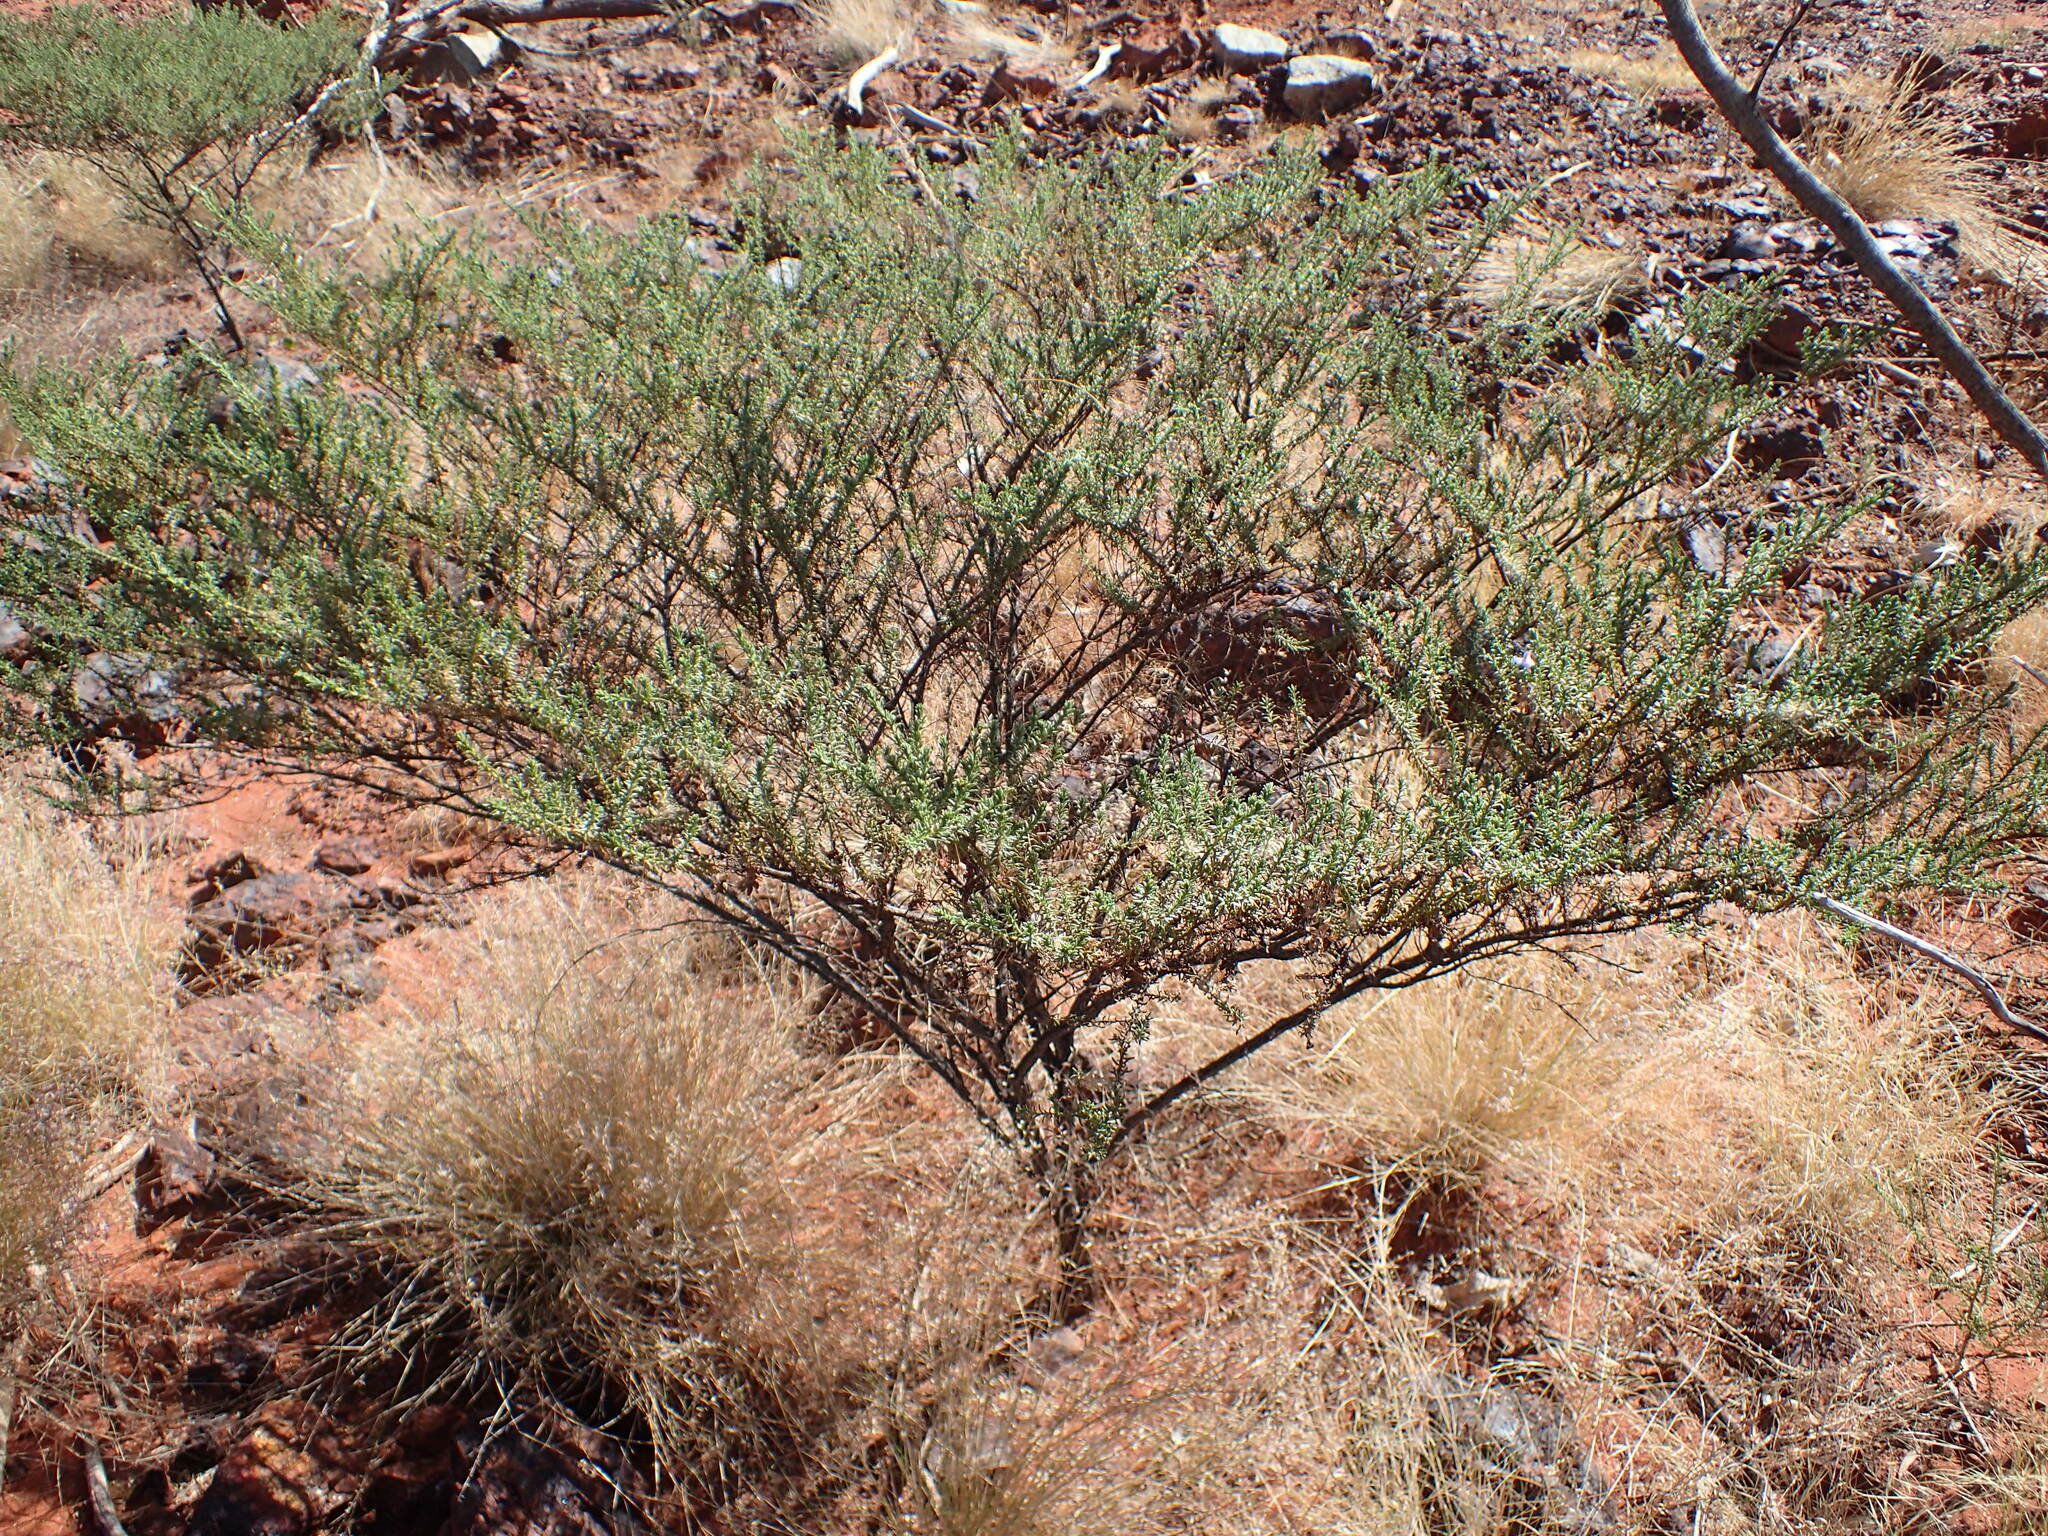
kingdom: Plantae
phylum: Tracheophyta
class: Magnoliopsida
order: Lamiales
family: Scrophulariaceae
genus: Eremophila
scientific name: Eremophila exilifolia
